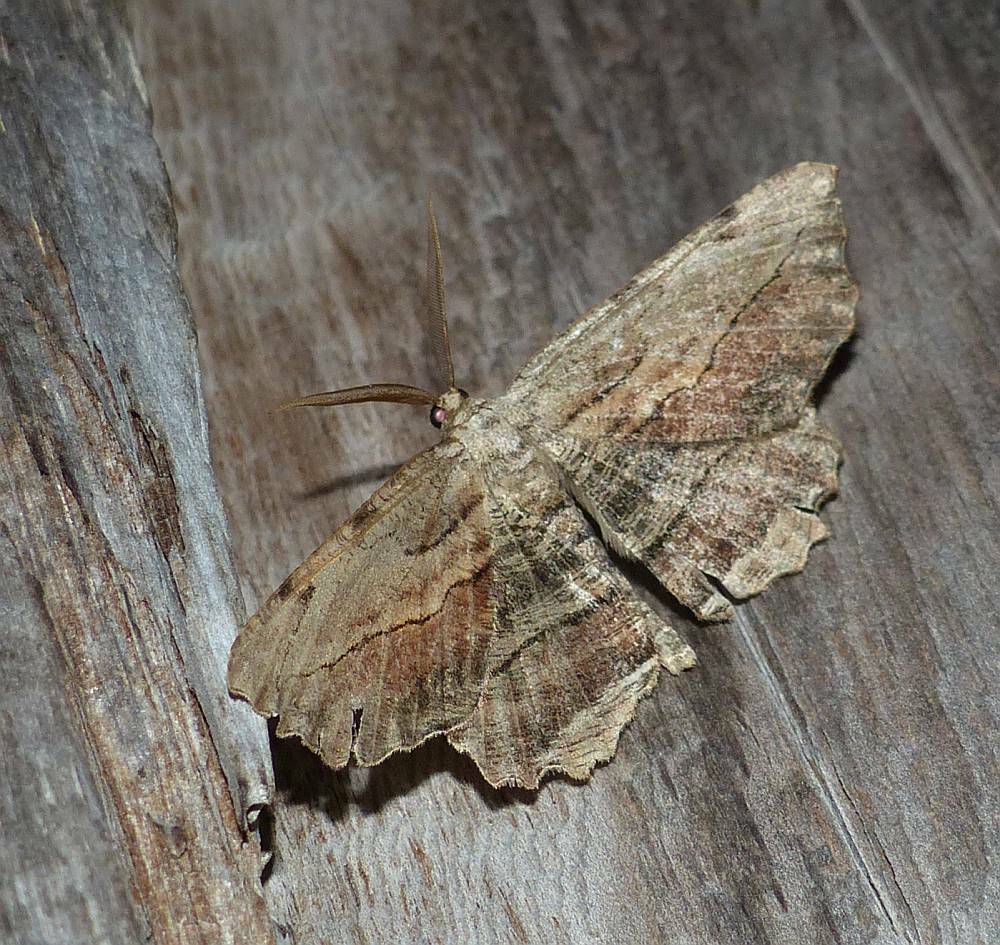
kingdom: Animalia
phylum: Arthropoda
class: Insecta
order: Lepidoptera
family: Geometridae
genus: Lytrosis
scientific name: Lytrosis unitaria
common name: Common lytrosis
